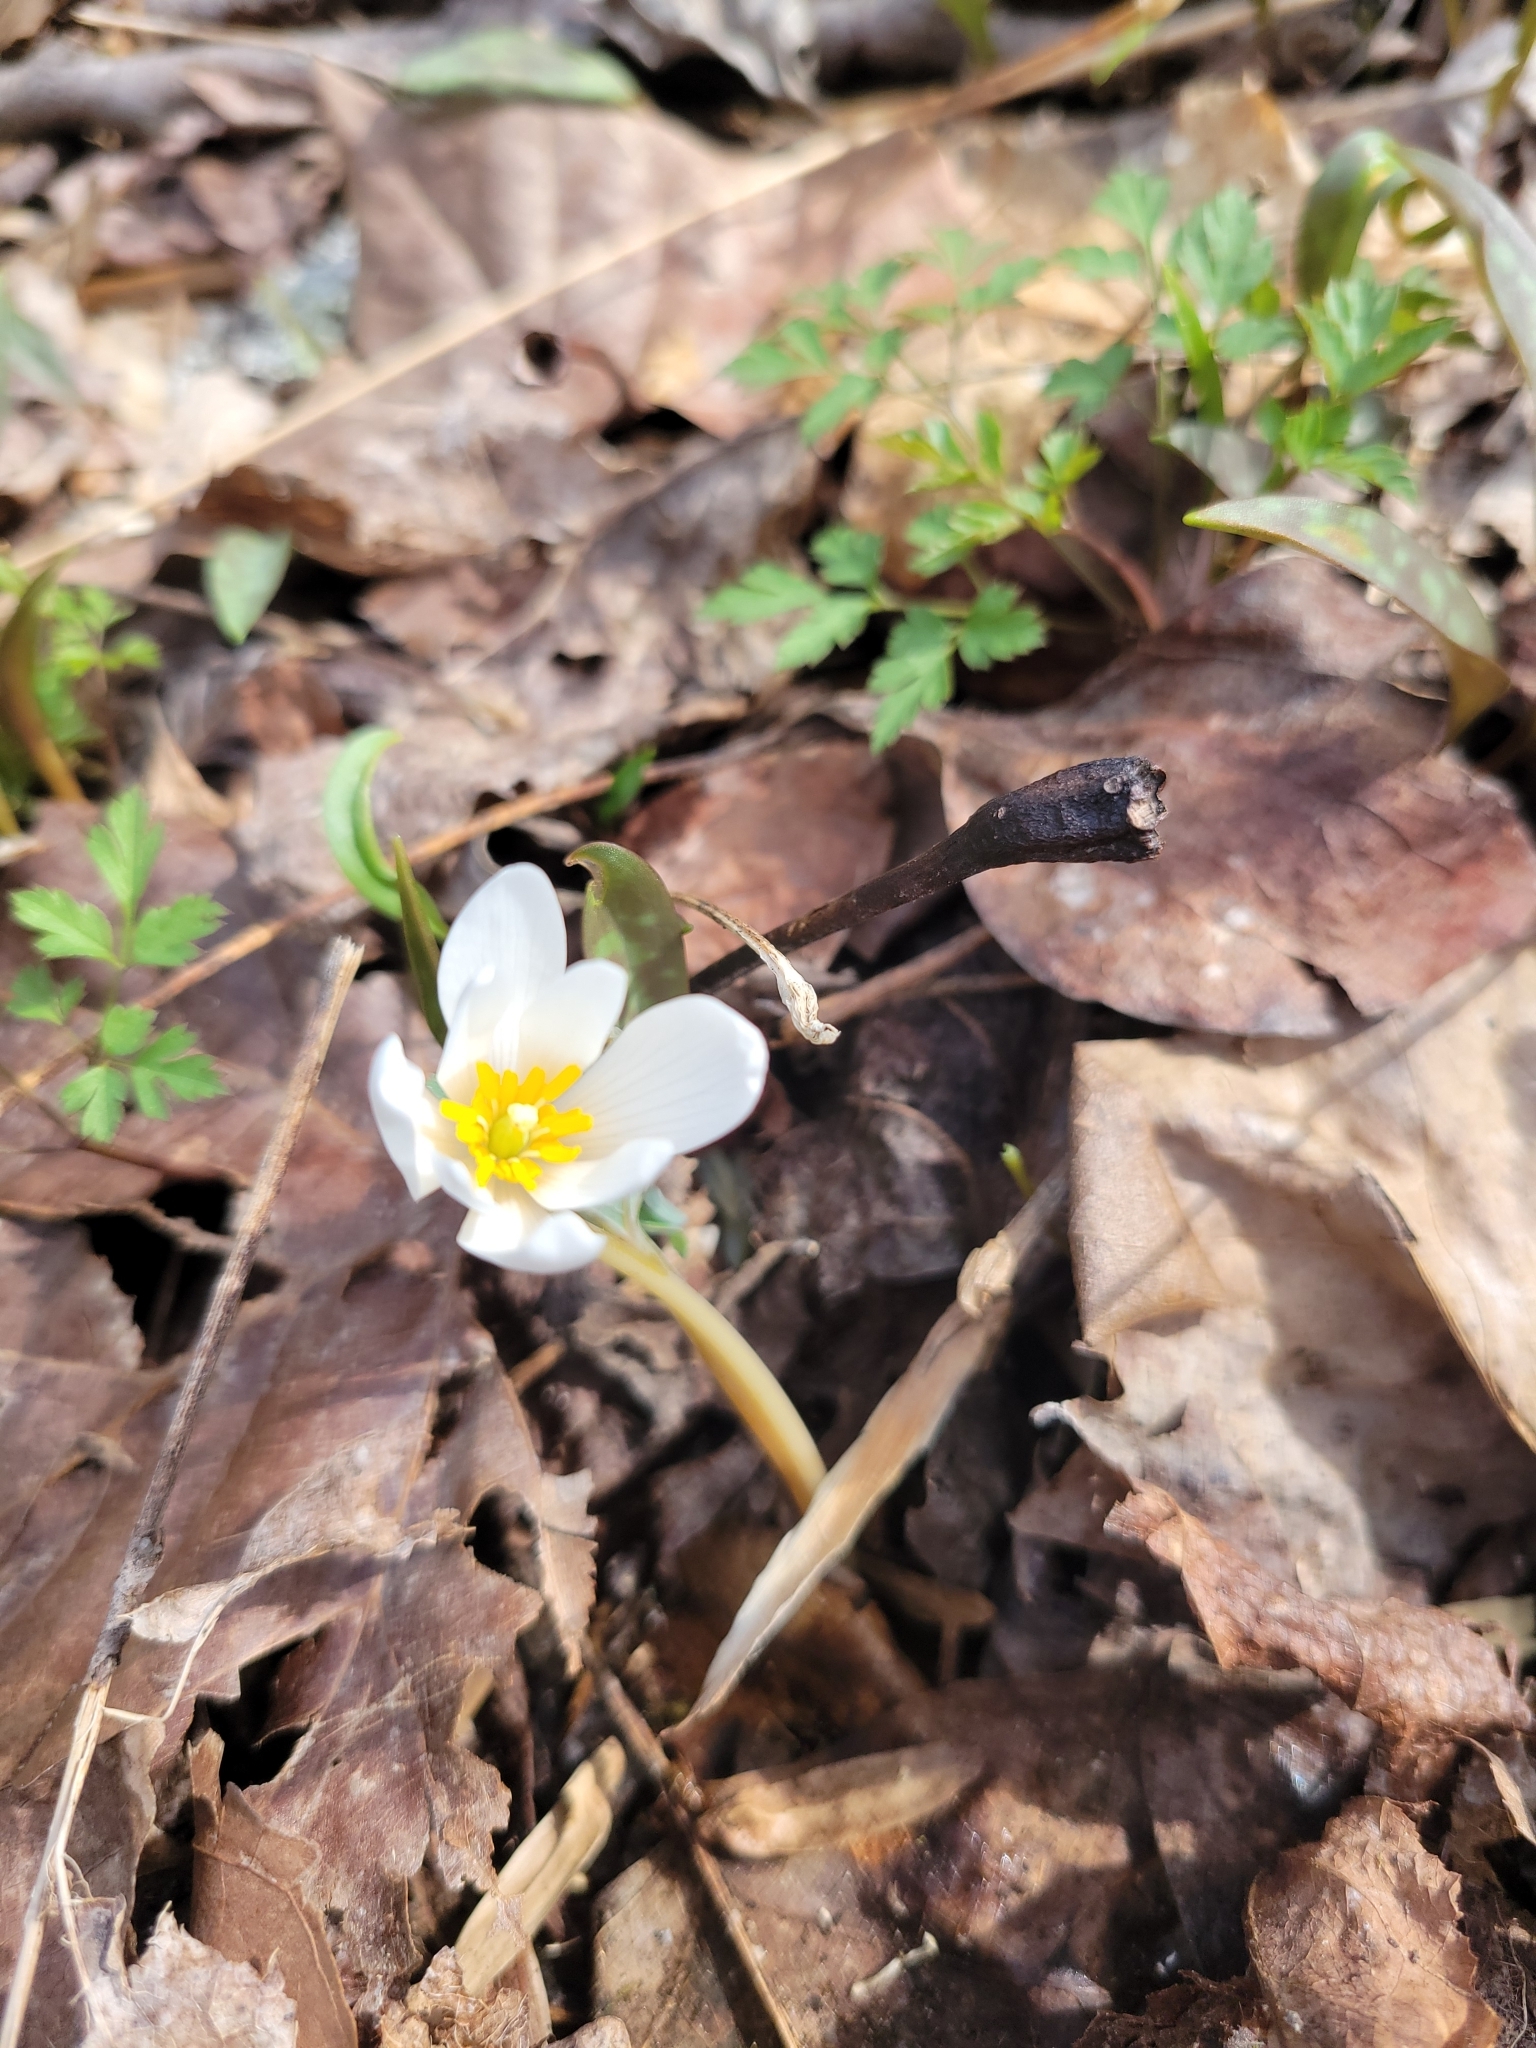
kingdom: Plantae
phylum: Tracheophyta
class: Magnoliopsida
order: Ranunculales
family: Papaveraceae
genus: Sanguinaria
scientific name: Sanguinaria canadensis
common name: Bloodroot
